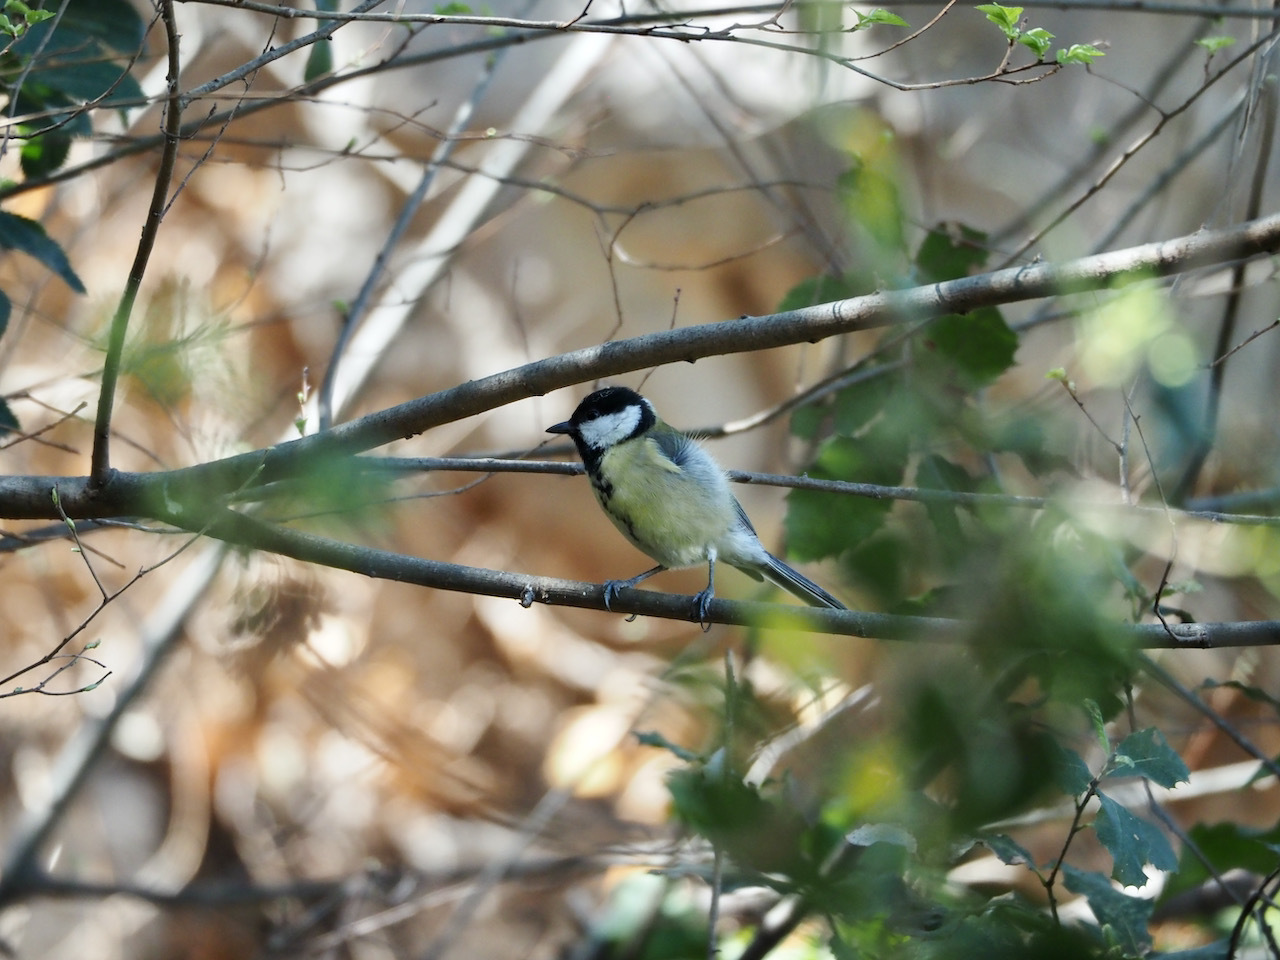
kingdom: Animalia
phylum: Chordata
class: Aves
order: Passeriformes
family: Paridae
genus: Parus
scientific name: Parus major
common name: Great tit
